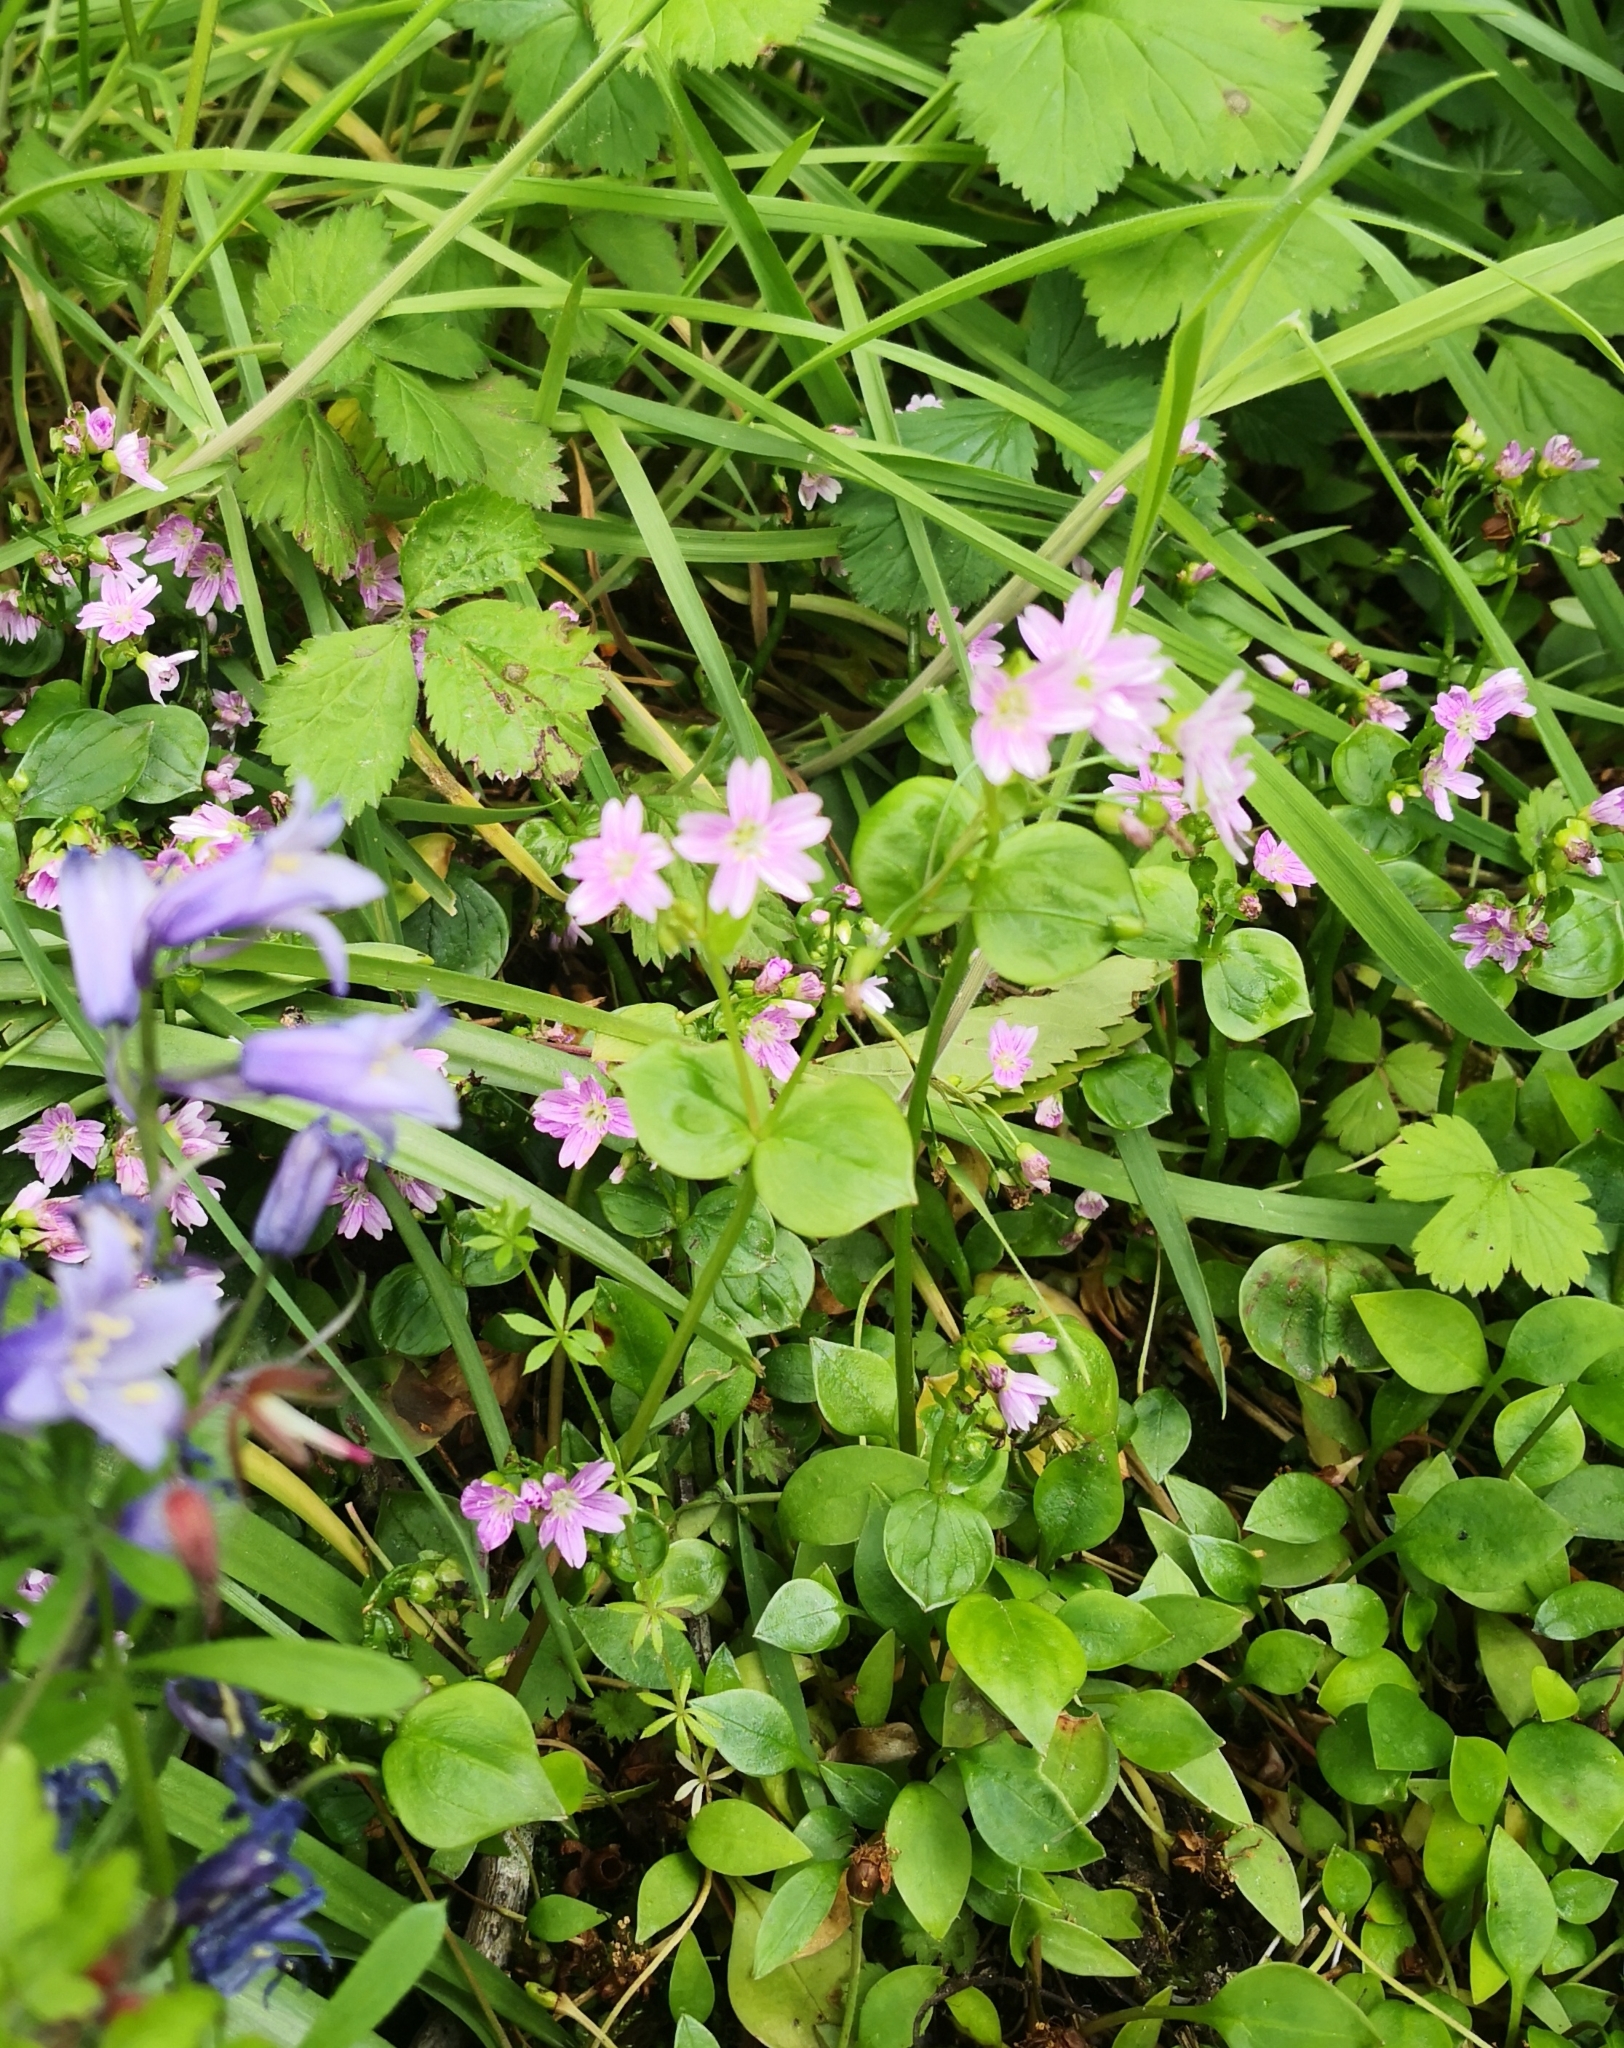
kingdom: Plantae
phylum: Tracheophyta
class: Magnoliopsida
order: Caryophyllales
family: Montiaceae
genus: Claytonia
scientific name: Claytonia sibirica
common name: Pink purslane
